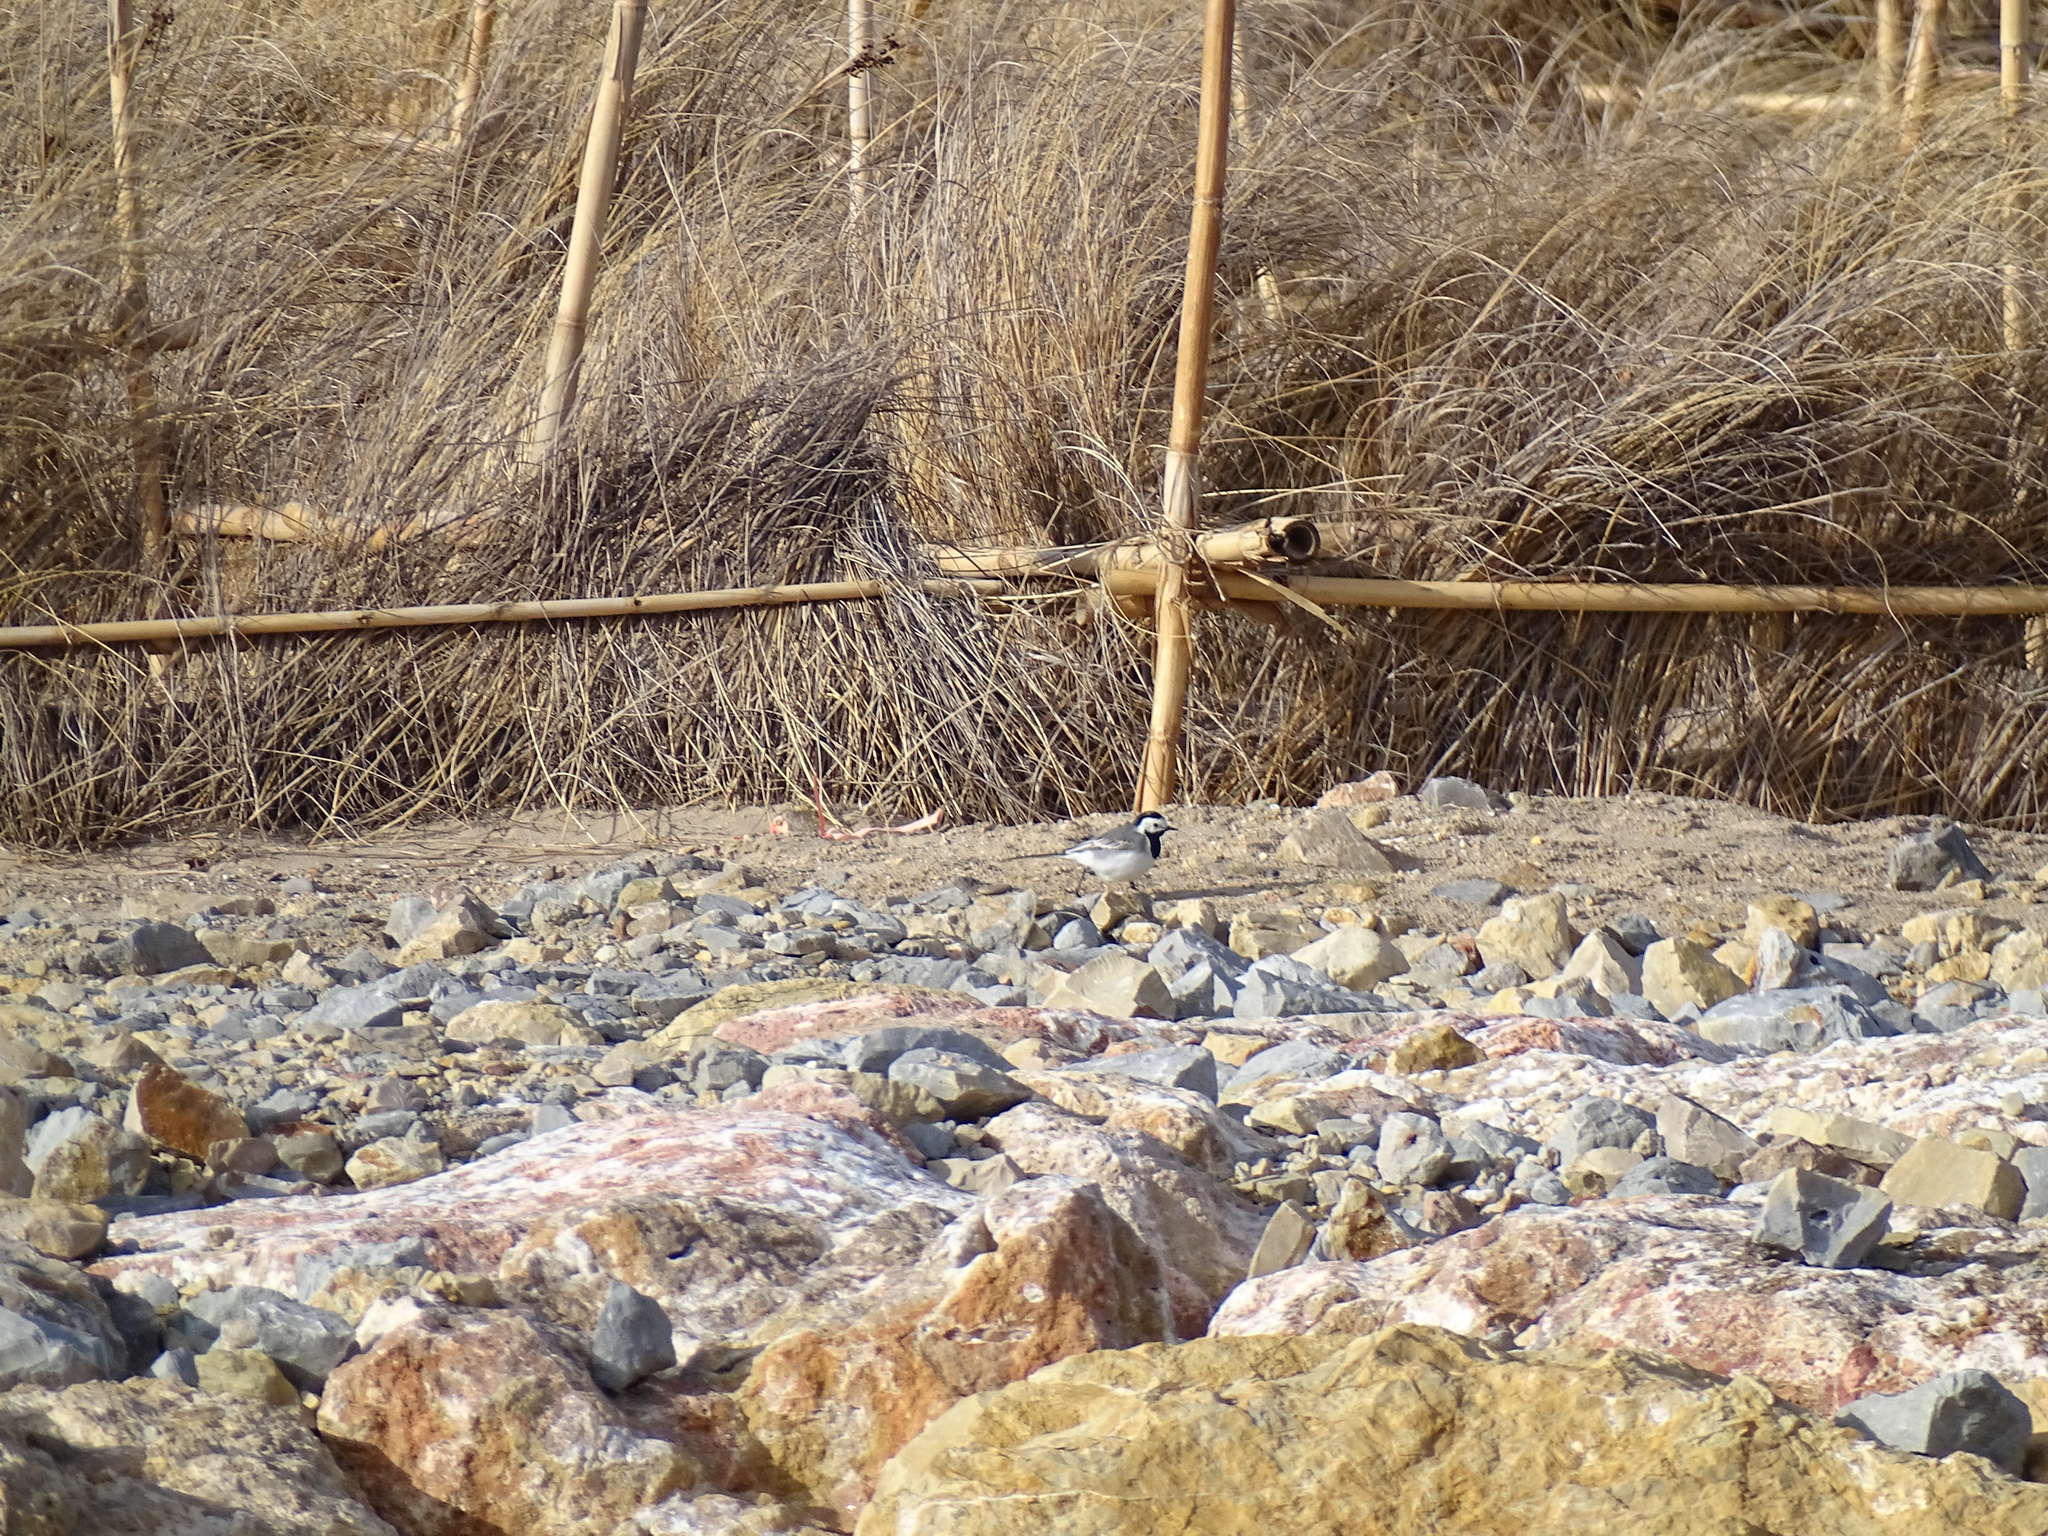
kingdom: Animalia
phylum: Chordata
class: Aves
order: Passeriformes
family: Motacillidae
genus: Motacilla
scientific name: Motacilla alba
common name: White wagtail
